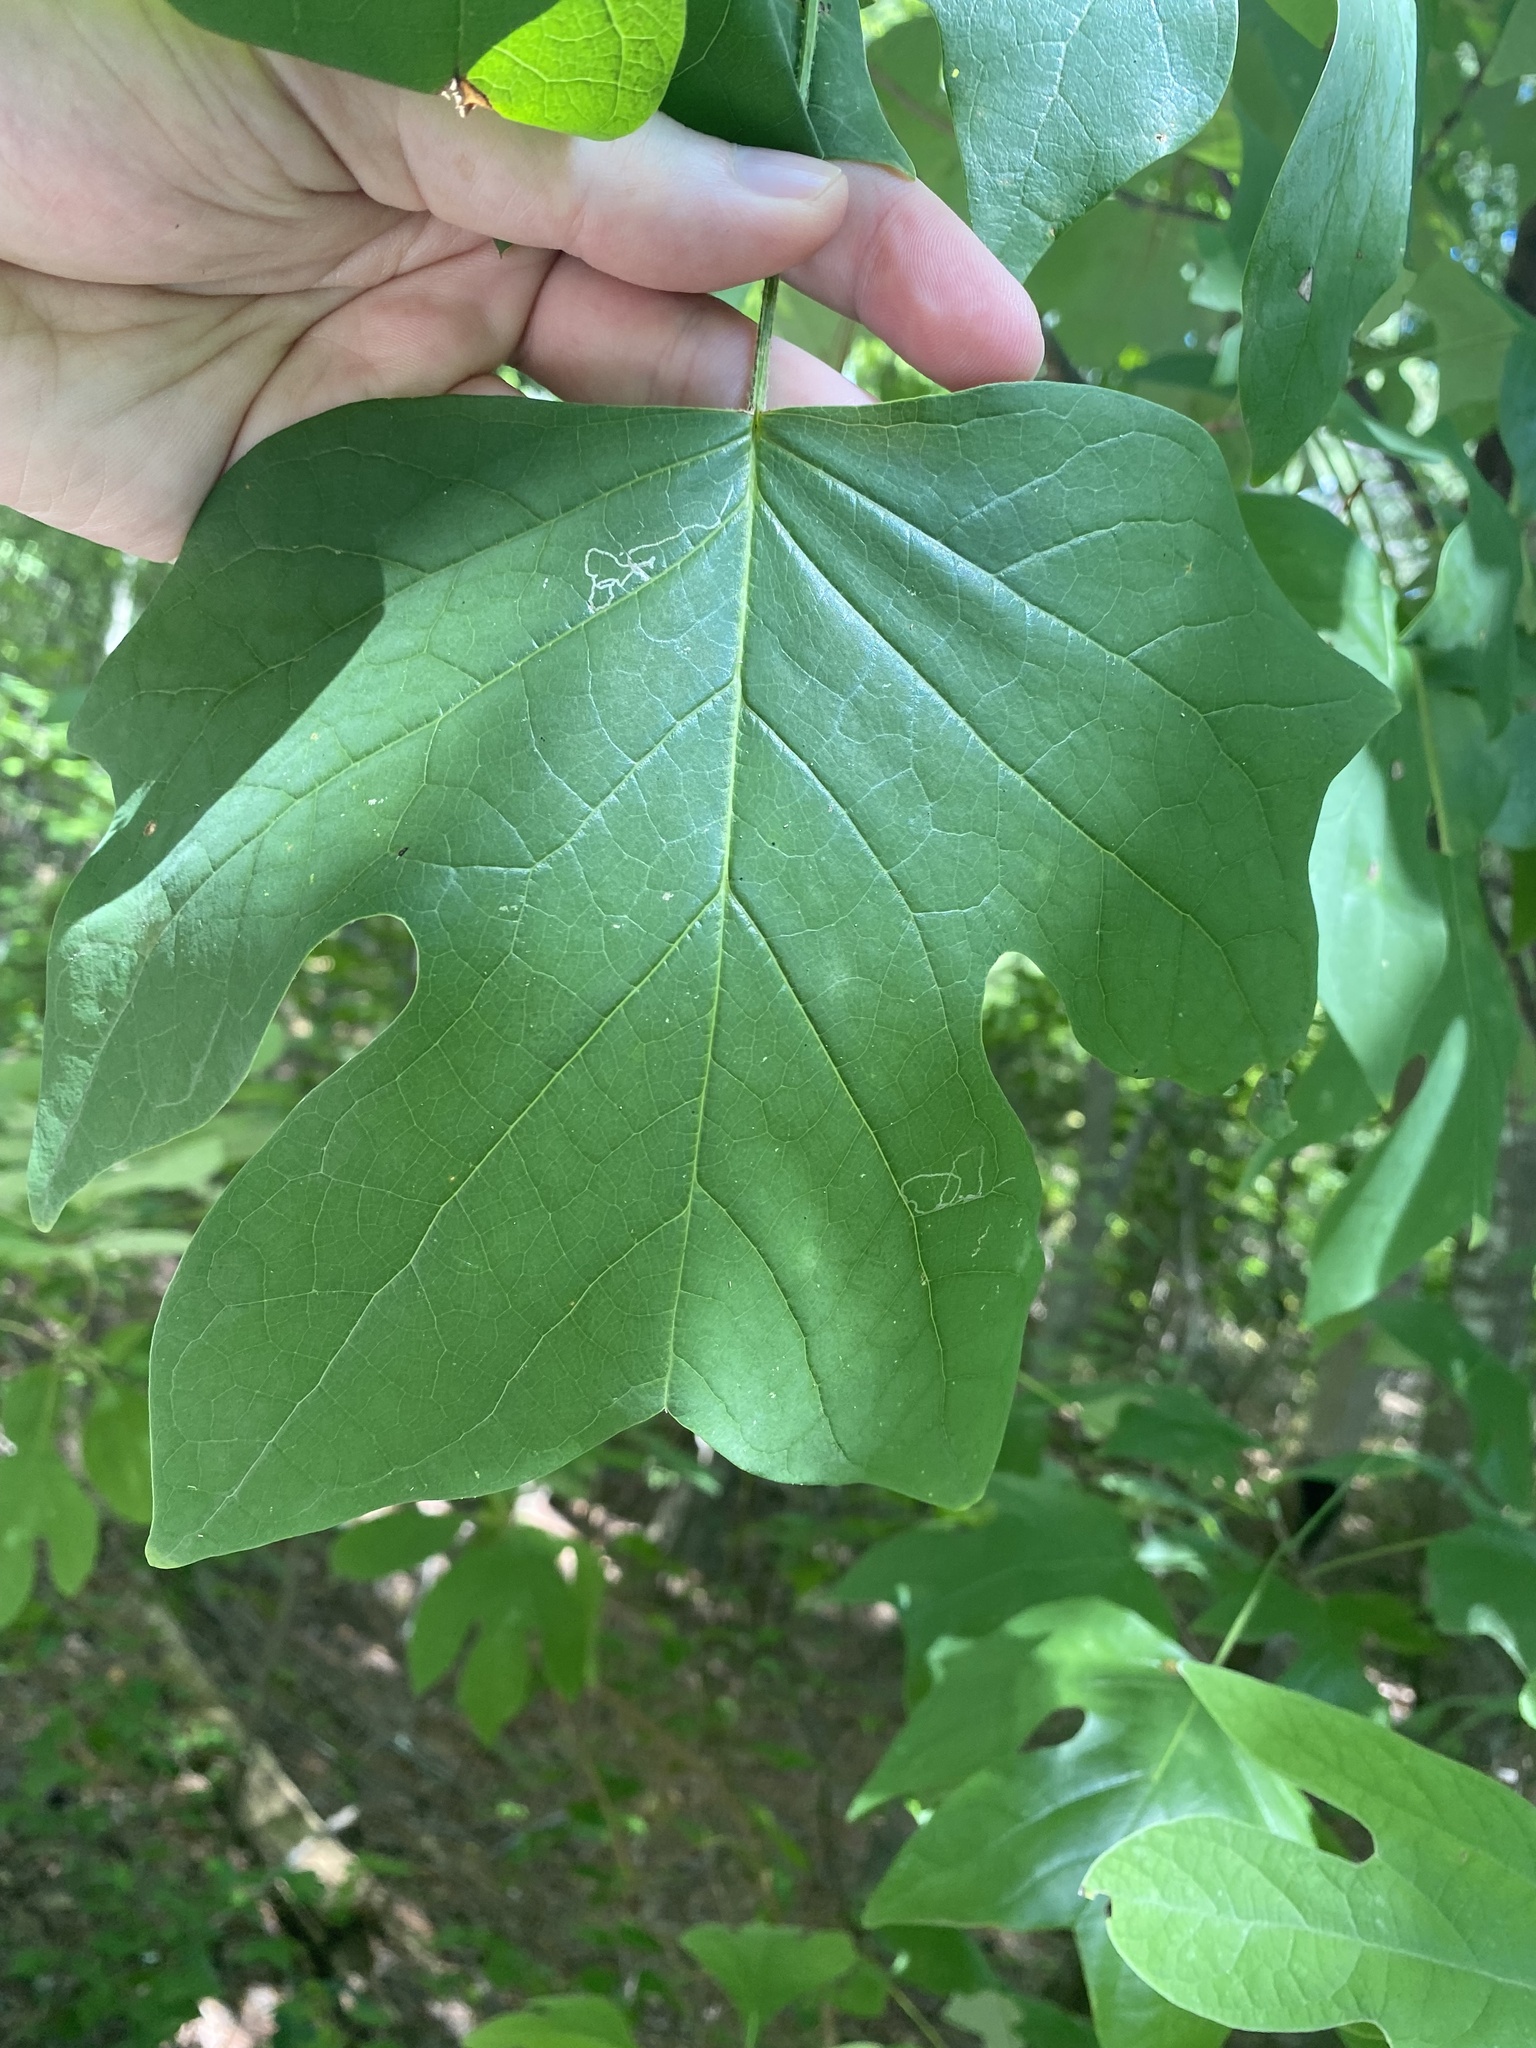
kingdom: Animalia
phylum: Arthropoda
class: Insecta
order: Lepidoptera
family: Gracillariidae
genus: Phyllocnistis
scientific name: Phyllocnistis liriodendronella
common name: Tulip tree leaf miner
